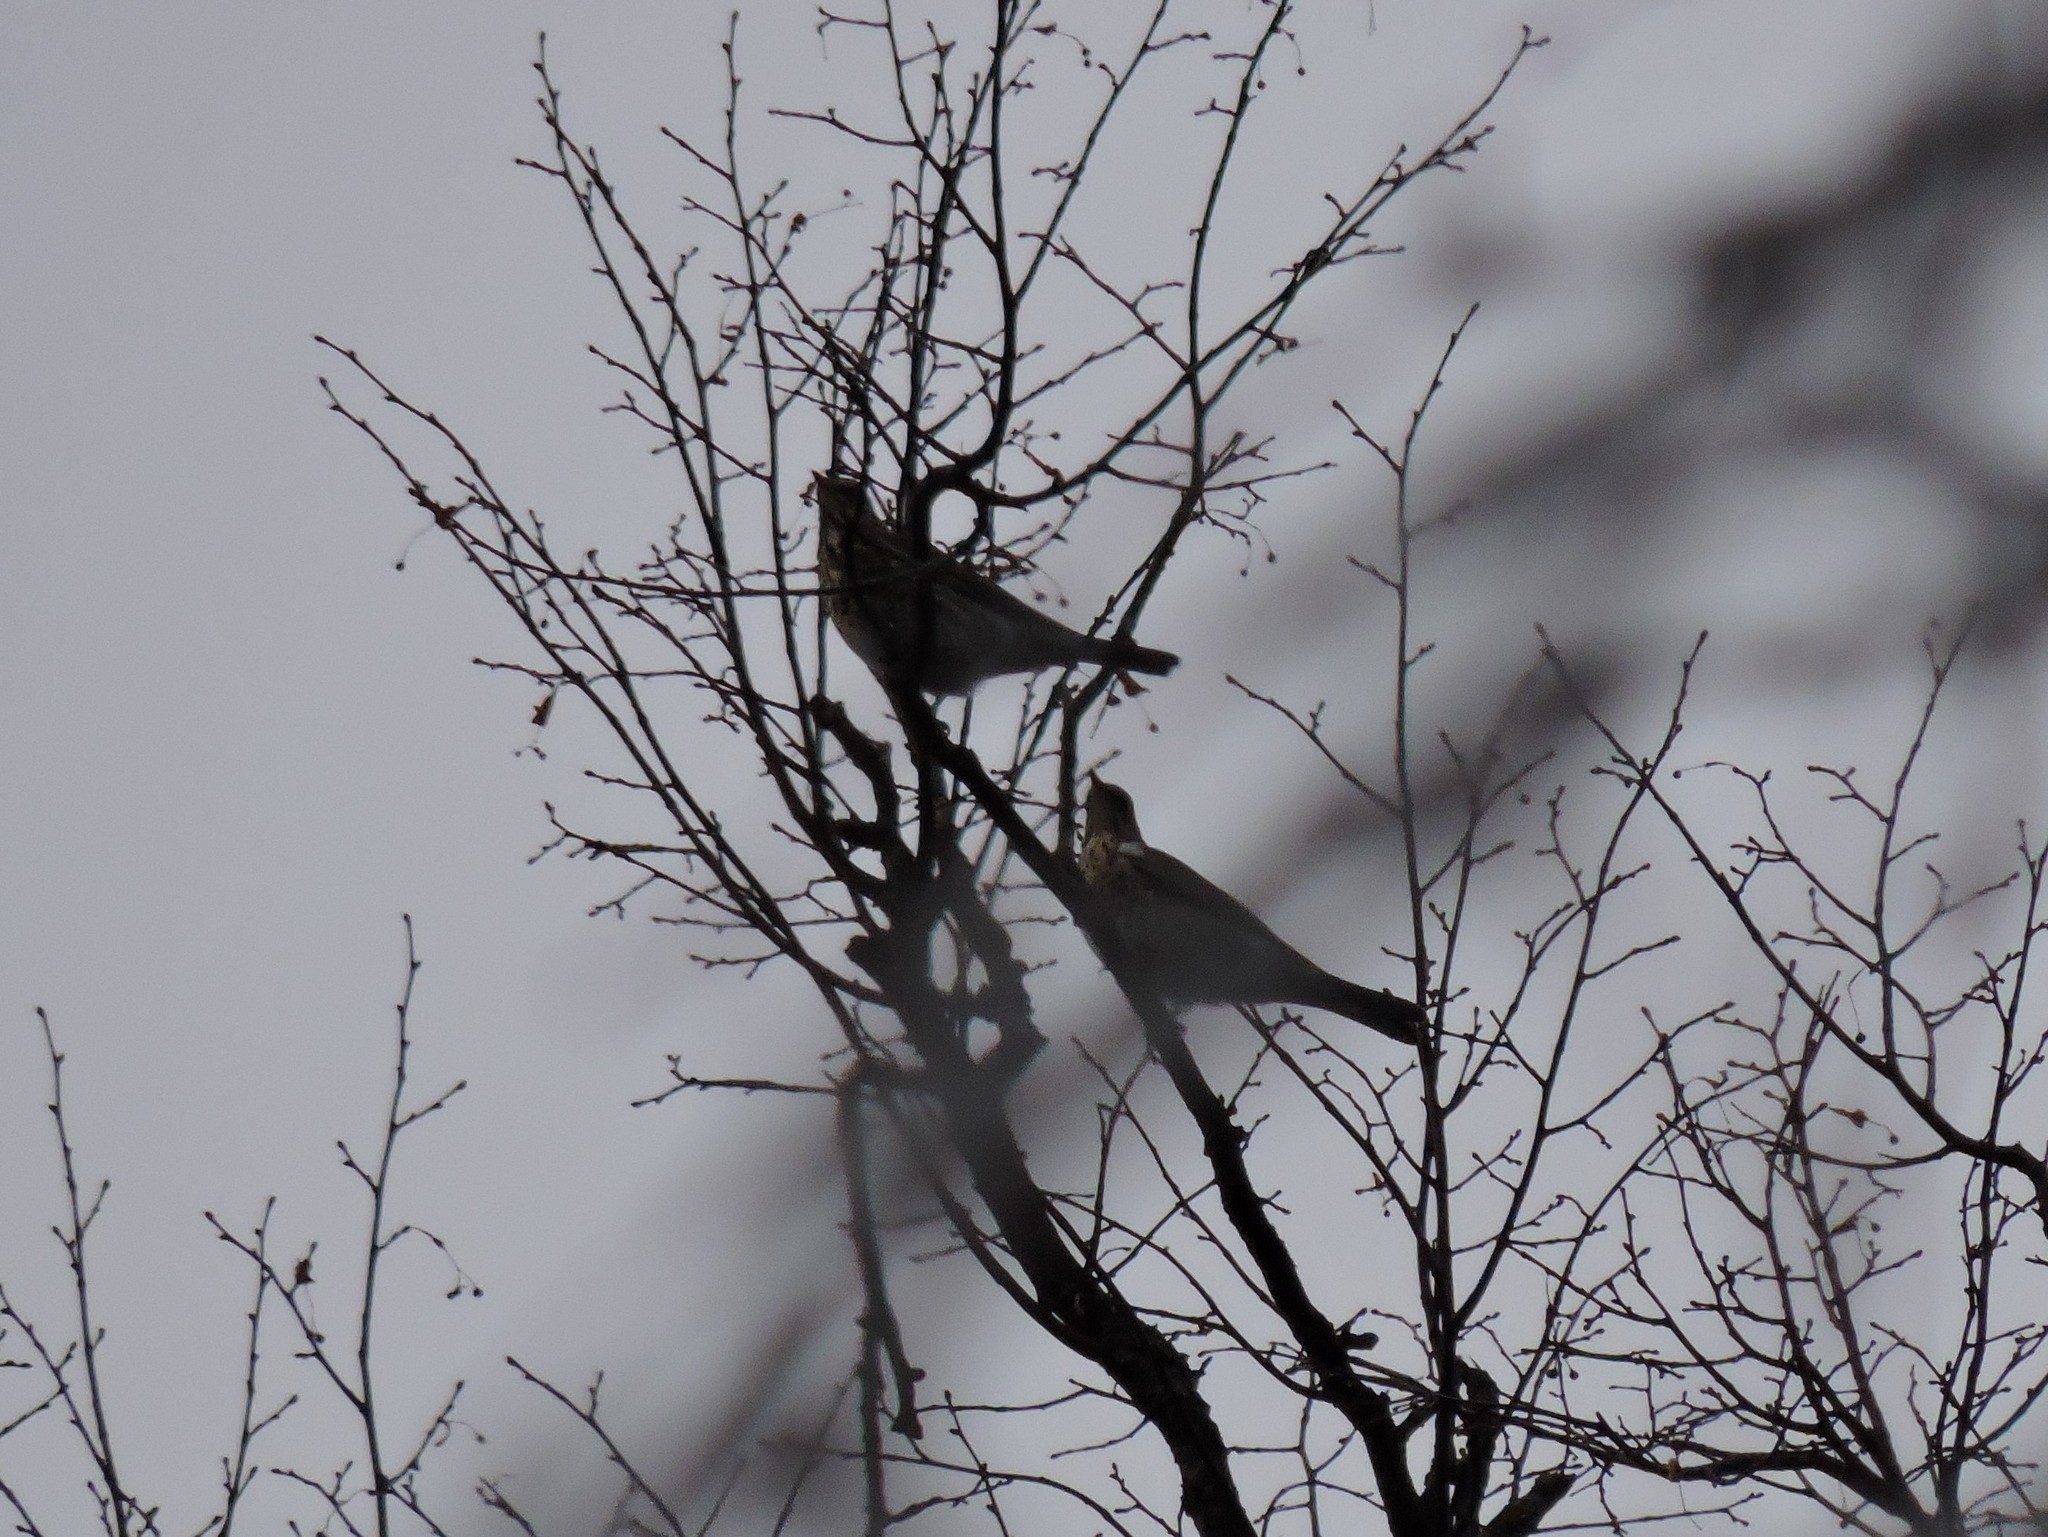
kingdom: Animalia
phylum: Chordata
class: Aves
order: Passeriformes
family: Turdidae
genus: Turdus
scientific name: Turdus pilaris
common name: Fieldfare
